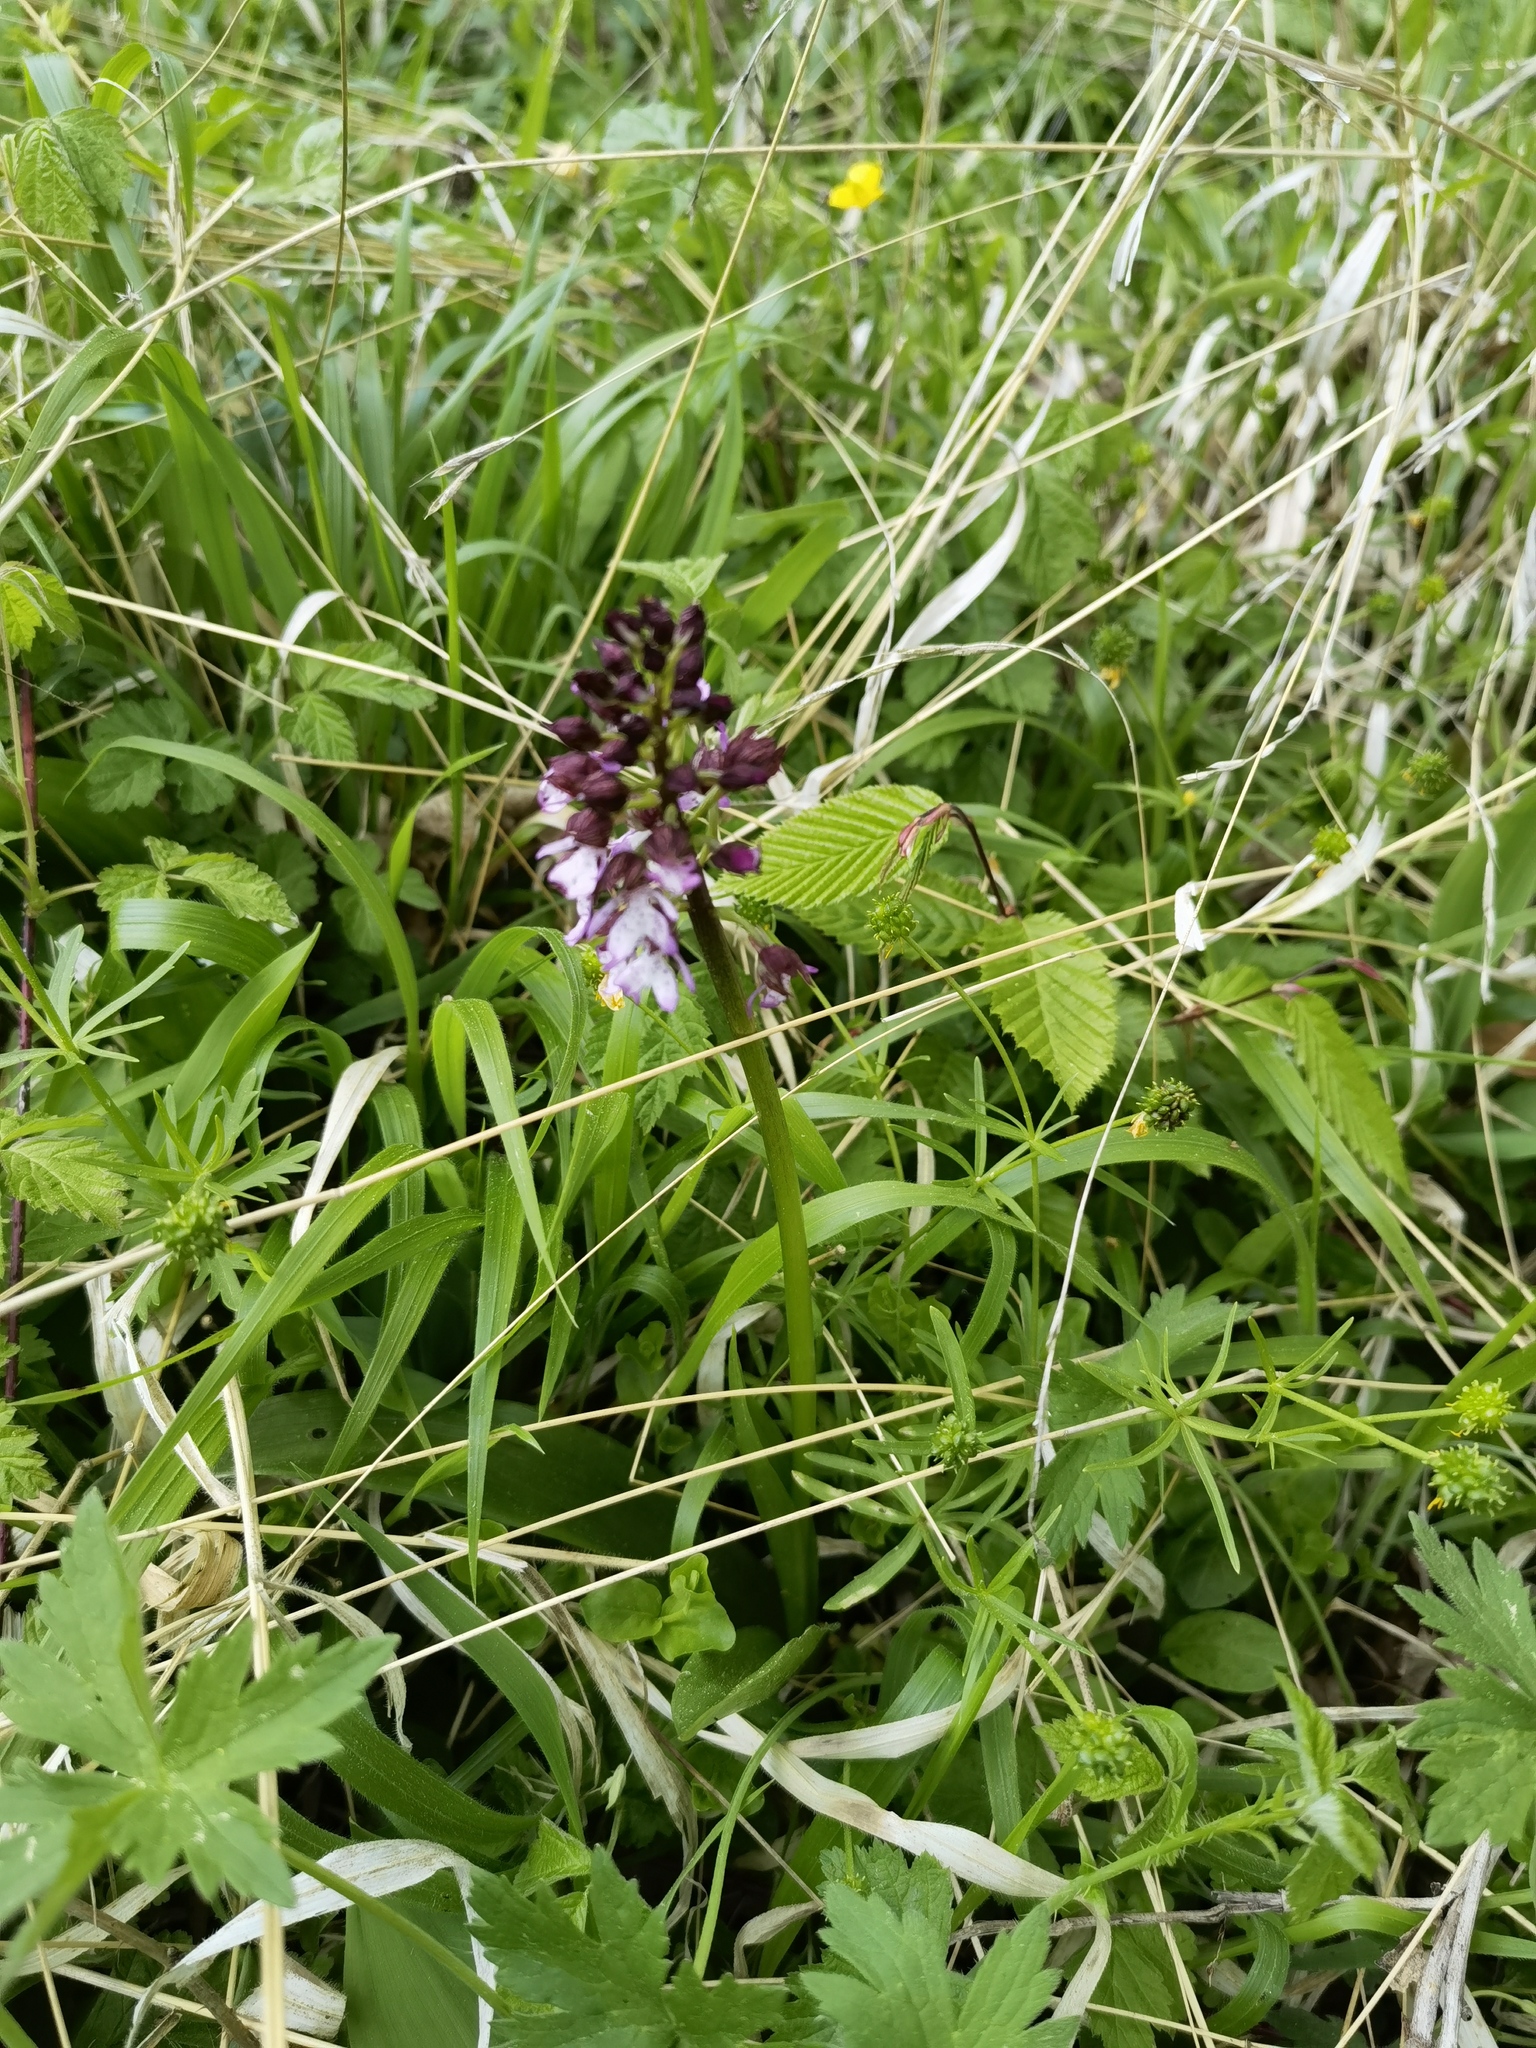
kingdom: Plantae
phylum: Tracheophyta
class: Liliopsida
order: Asparagales
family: Orchidaceae
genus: Orchis
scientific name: Orchis purpurea
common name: Lady orchid
